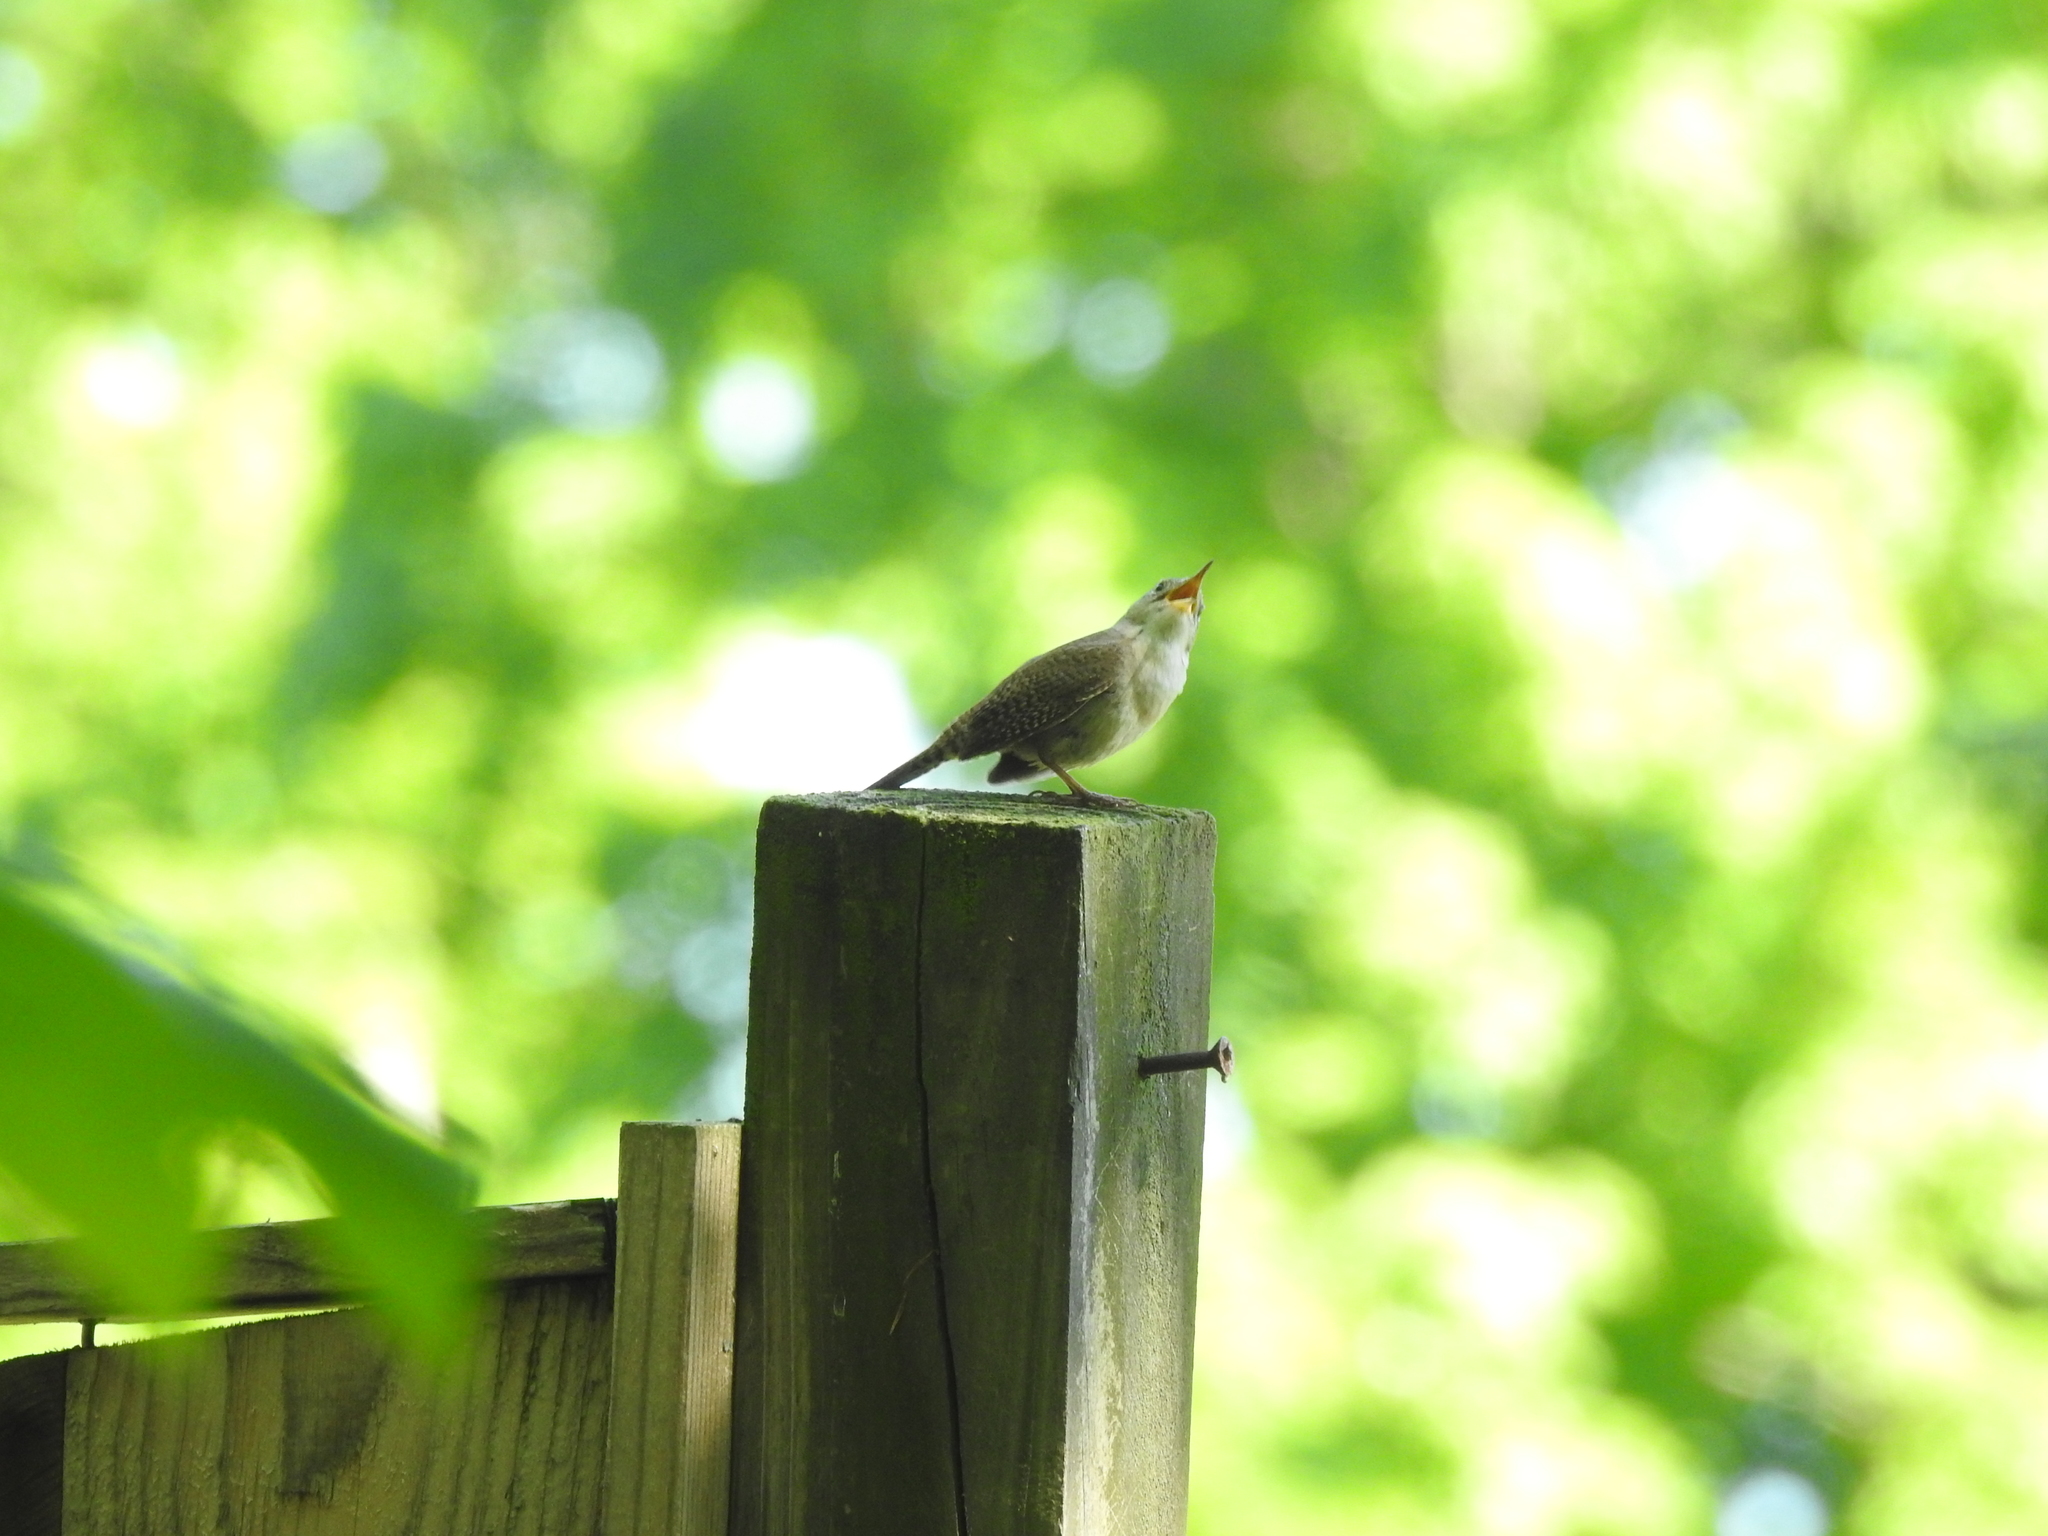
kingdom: Animalia
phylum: Chordata
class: Aves
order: Passeriformes
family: Troglodytidae
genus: Troglodytes
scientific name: Troglodytes aedon
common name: House wren
